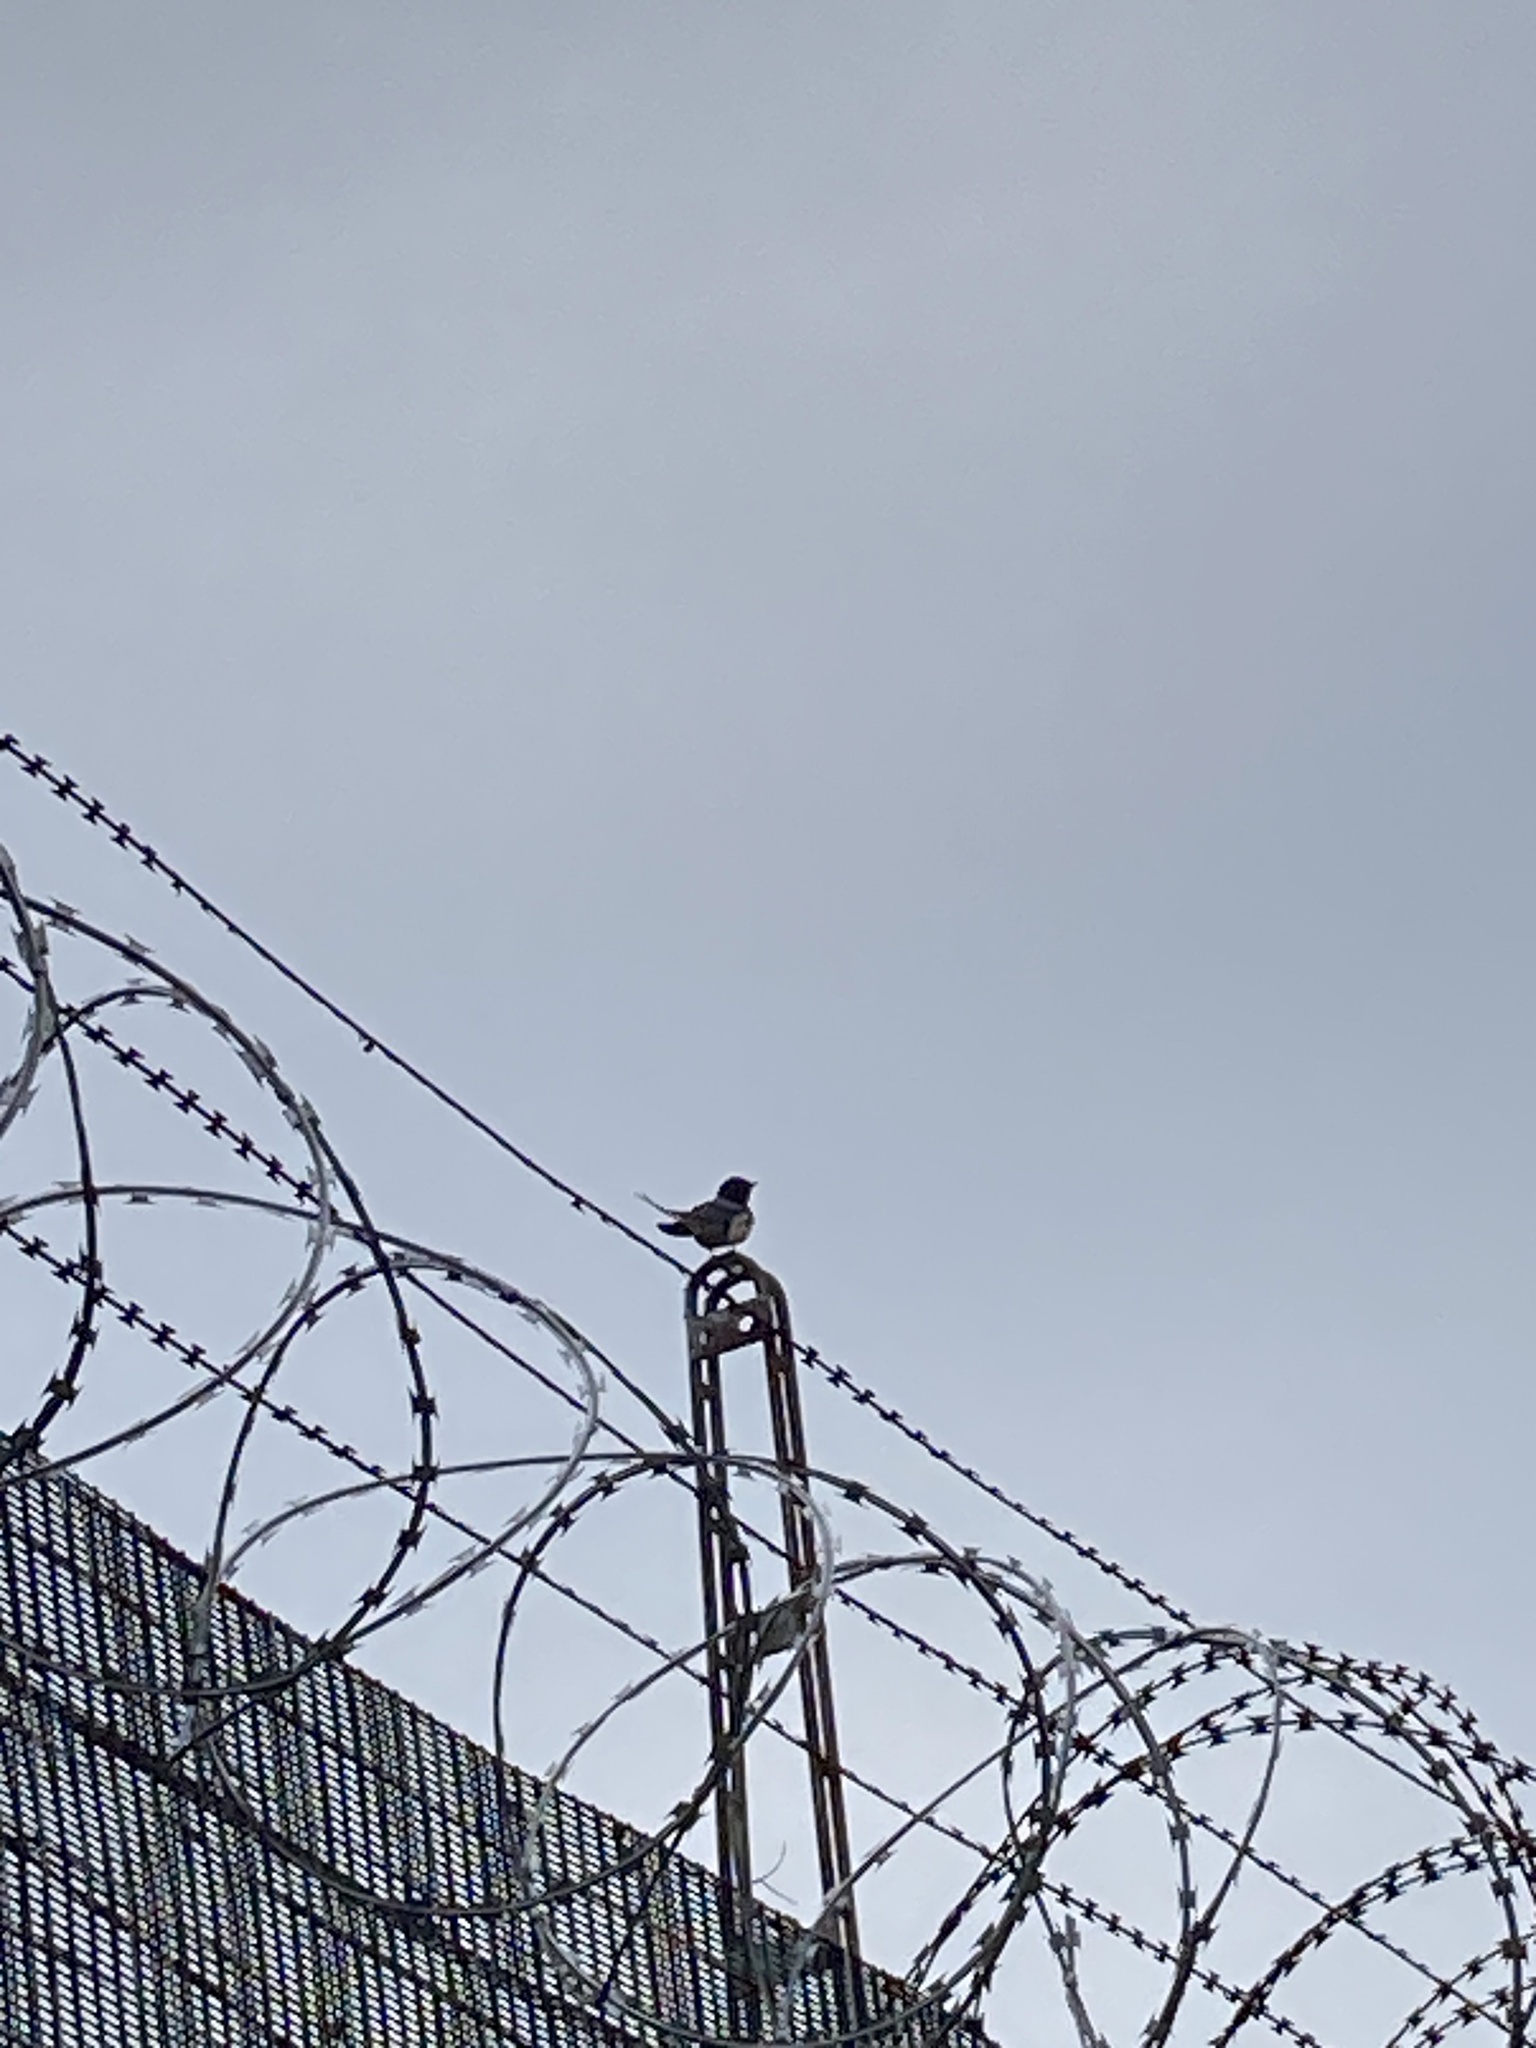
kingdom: Animalia
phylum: Chordata
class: Aves
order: Passeriformes
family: Hirundinidae
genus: Hirundo
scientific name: Hirundo rustica
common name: Barn swallow
